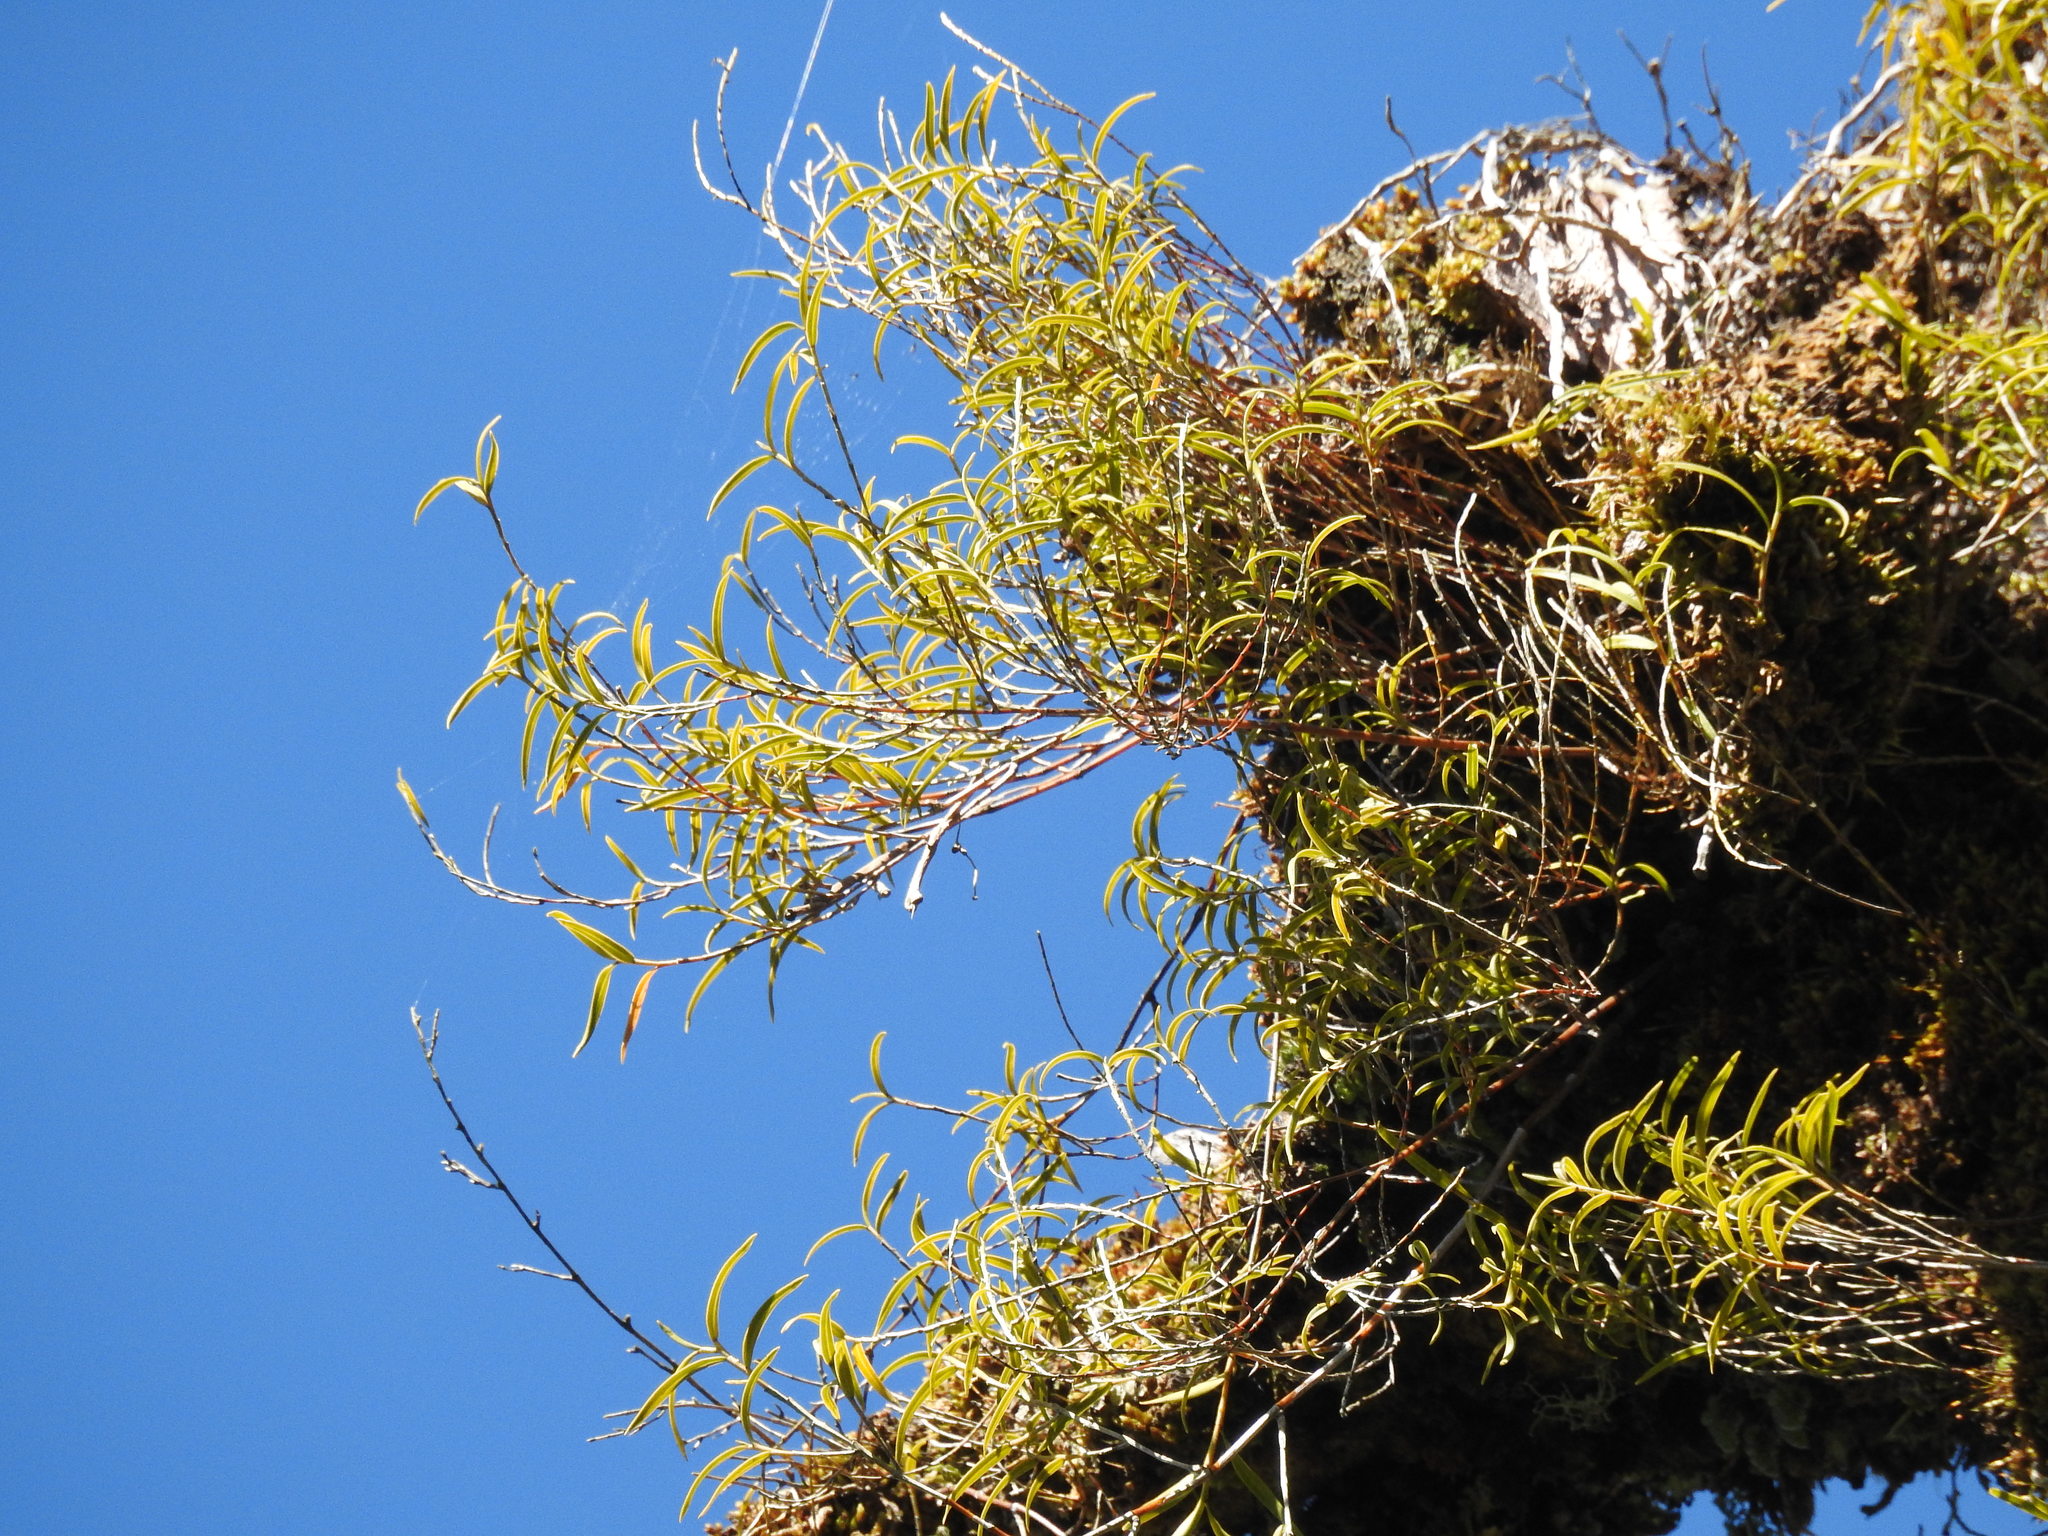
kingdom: Plantae
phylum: Tracheophyta
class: Liliopsida
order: Asparagales
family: Orchidaceae
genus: Dendrobium
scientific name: Dendrobium cunninghamii
